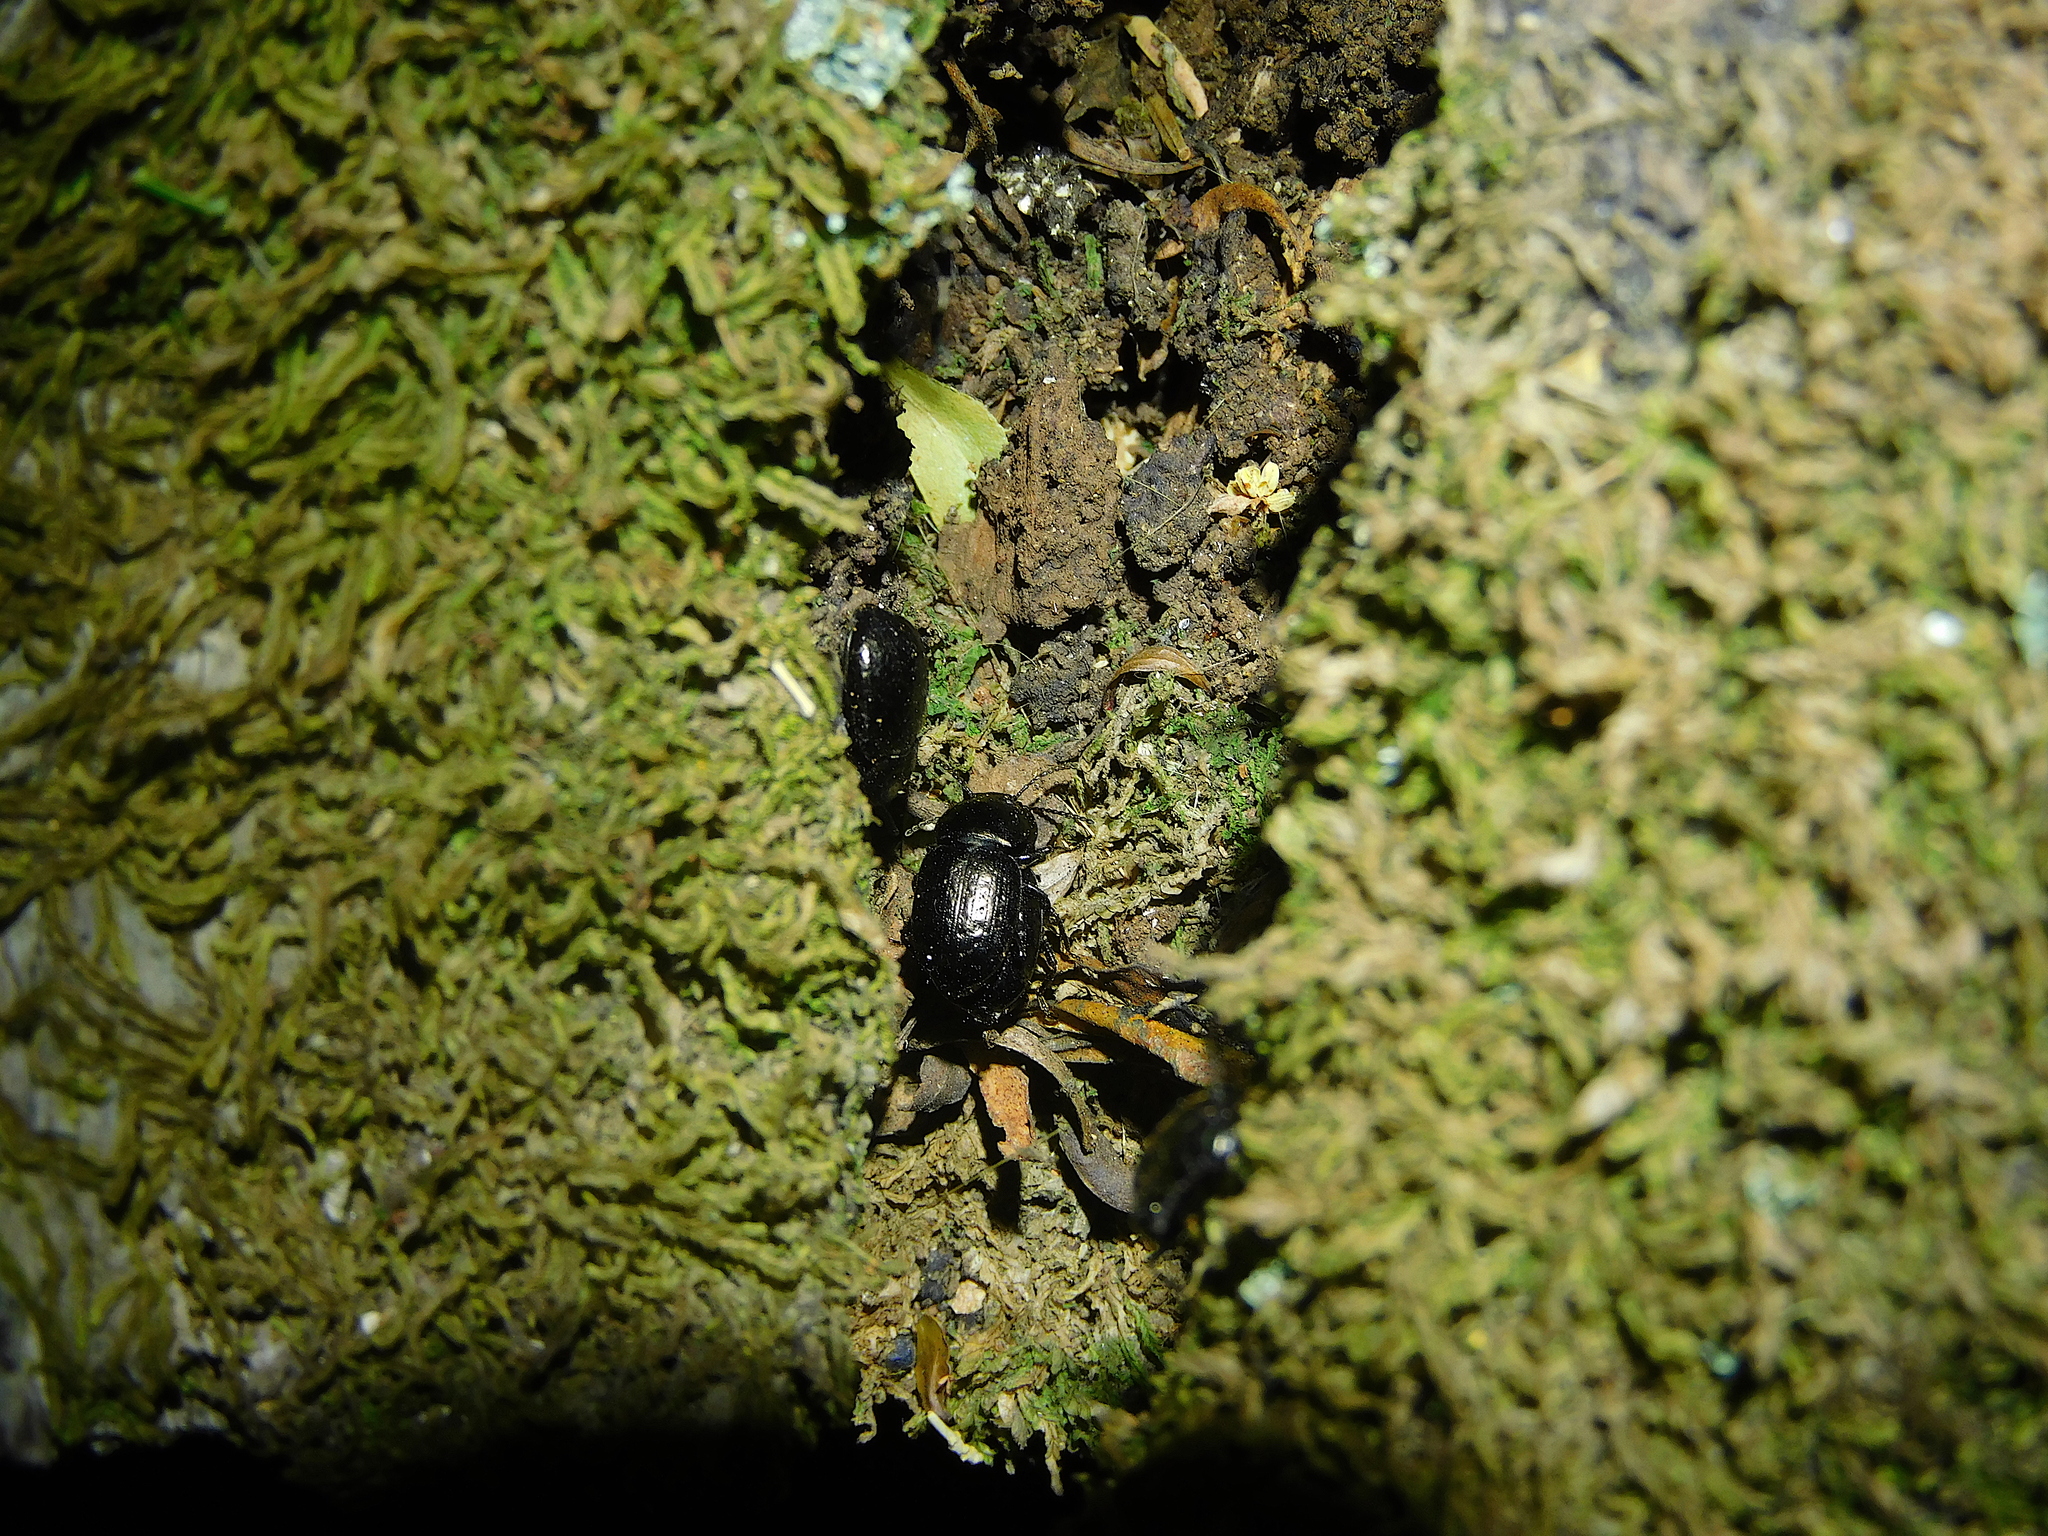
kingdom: Animalia
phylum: Arthropoda
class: Insecta
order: Coleoptera
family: Tenebrionidae
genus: Adelium
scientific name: Adelium abbreviatum
